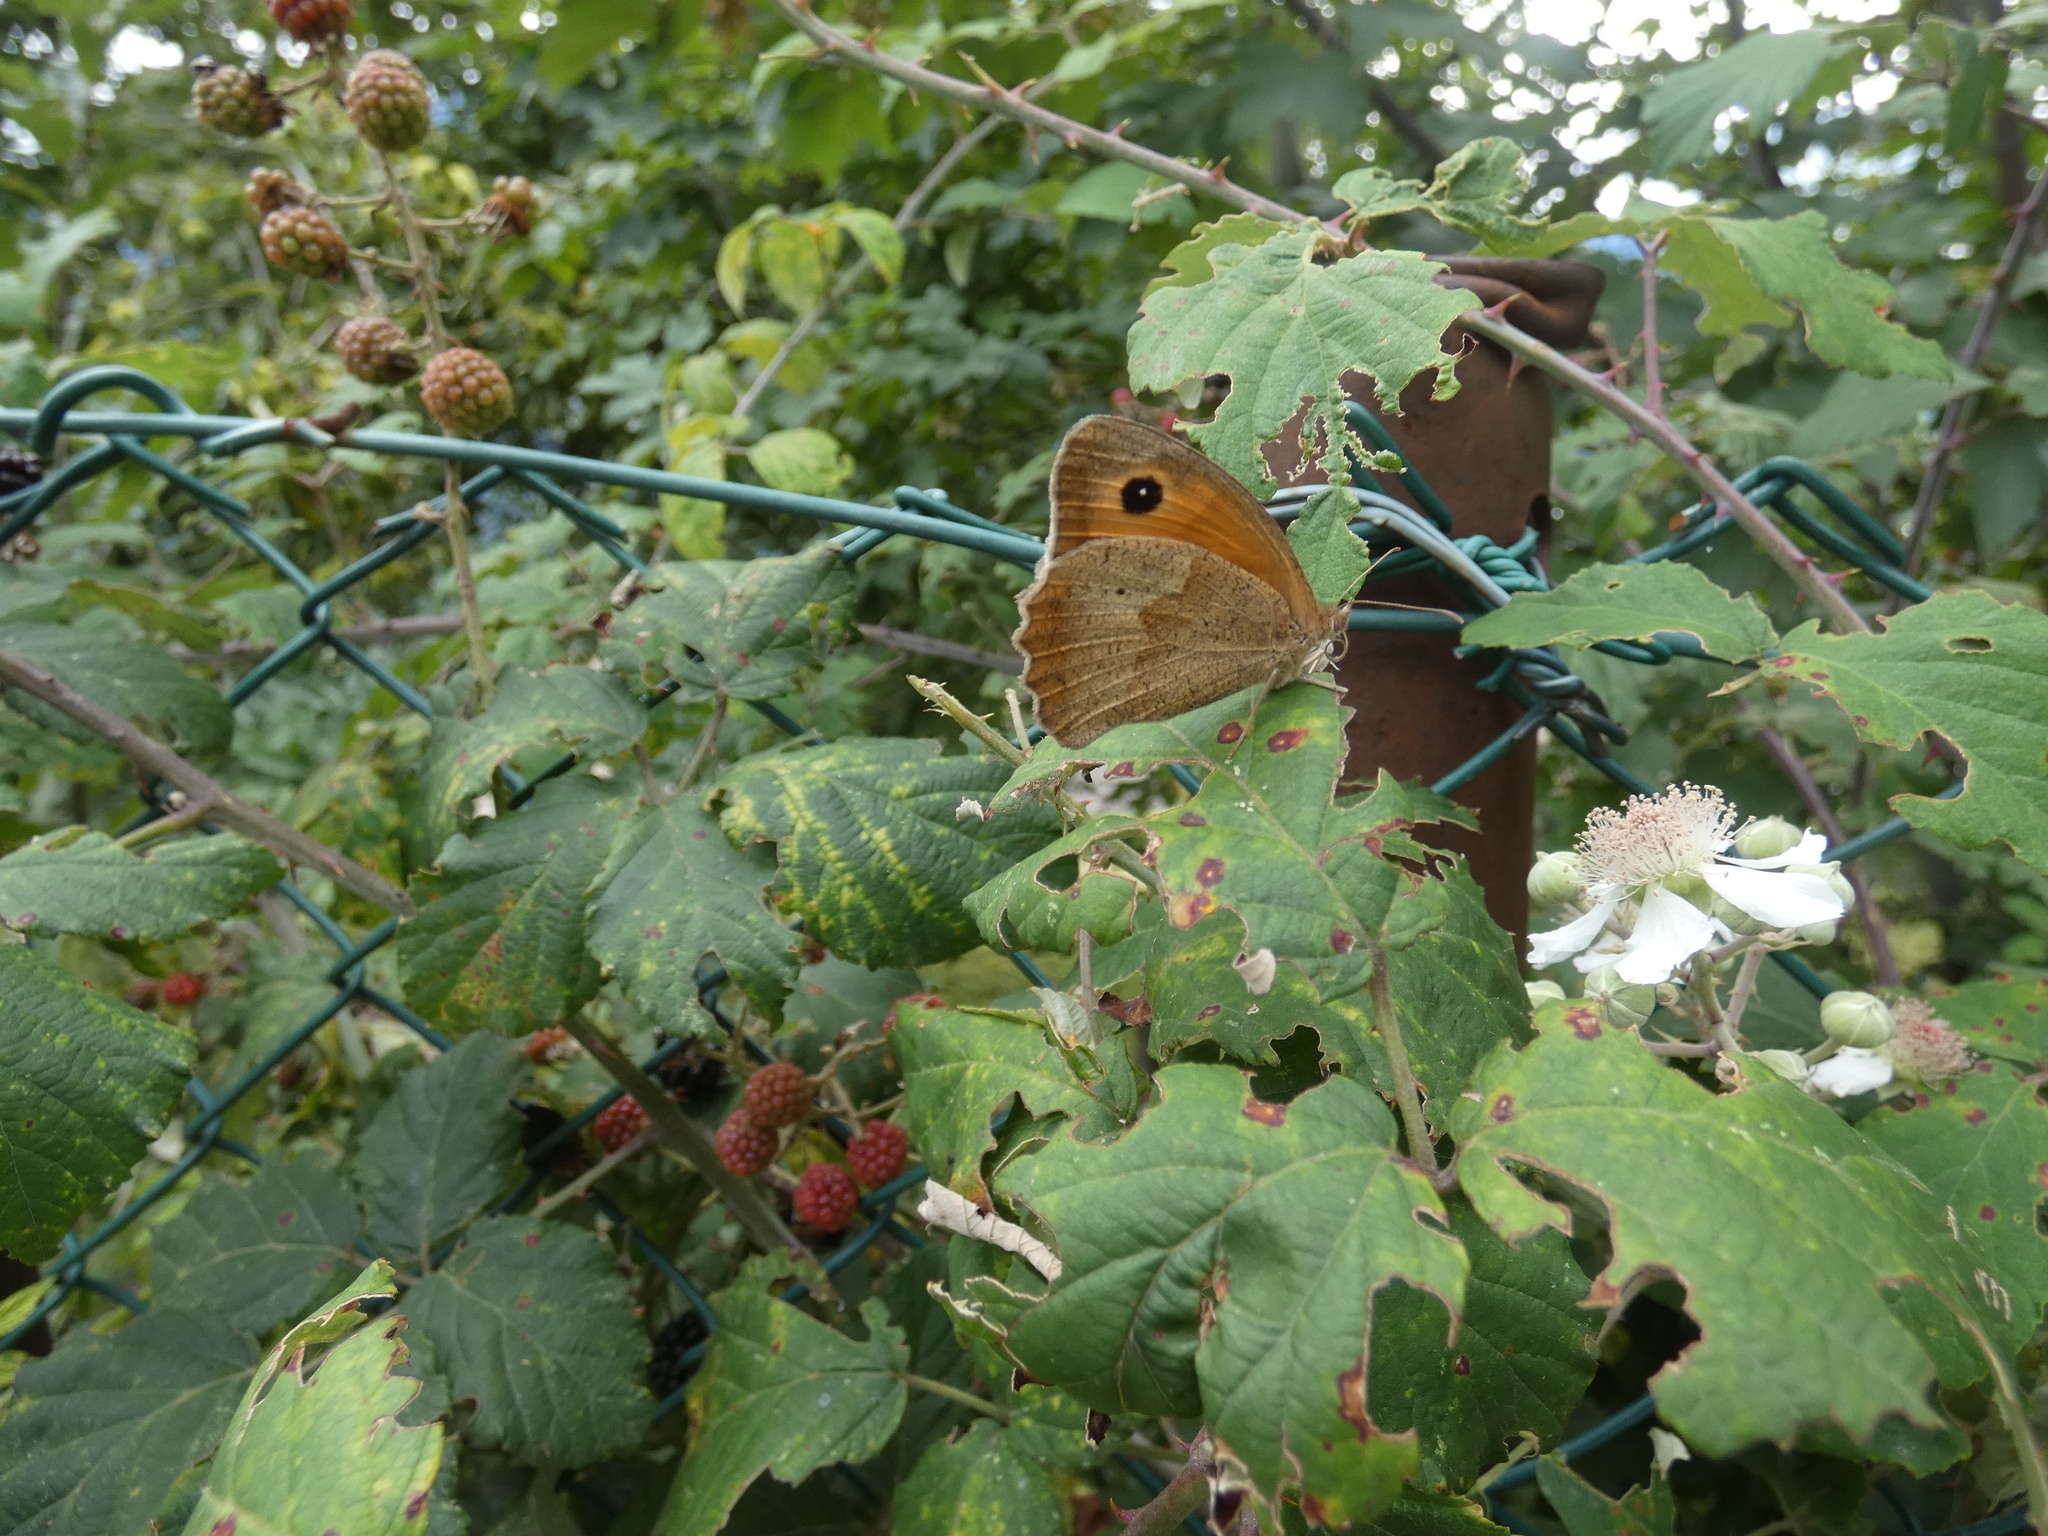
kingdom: Animalia
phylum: Arthropoda
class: Insecta
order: Lepidoptera
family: Nymphalidae
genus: Maniola
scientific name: Maniola jurtina
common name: Meadow brown
